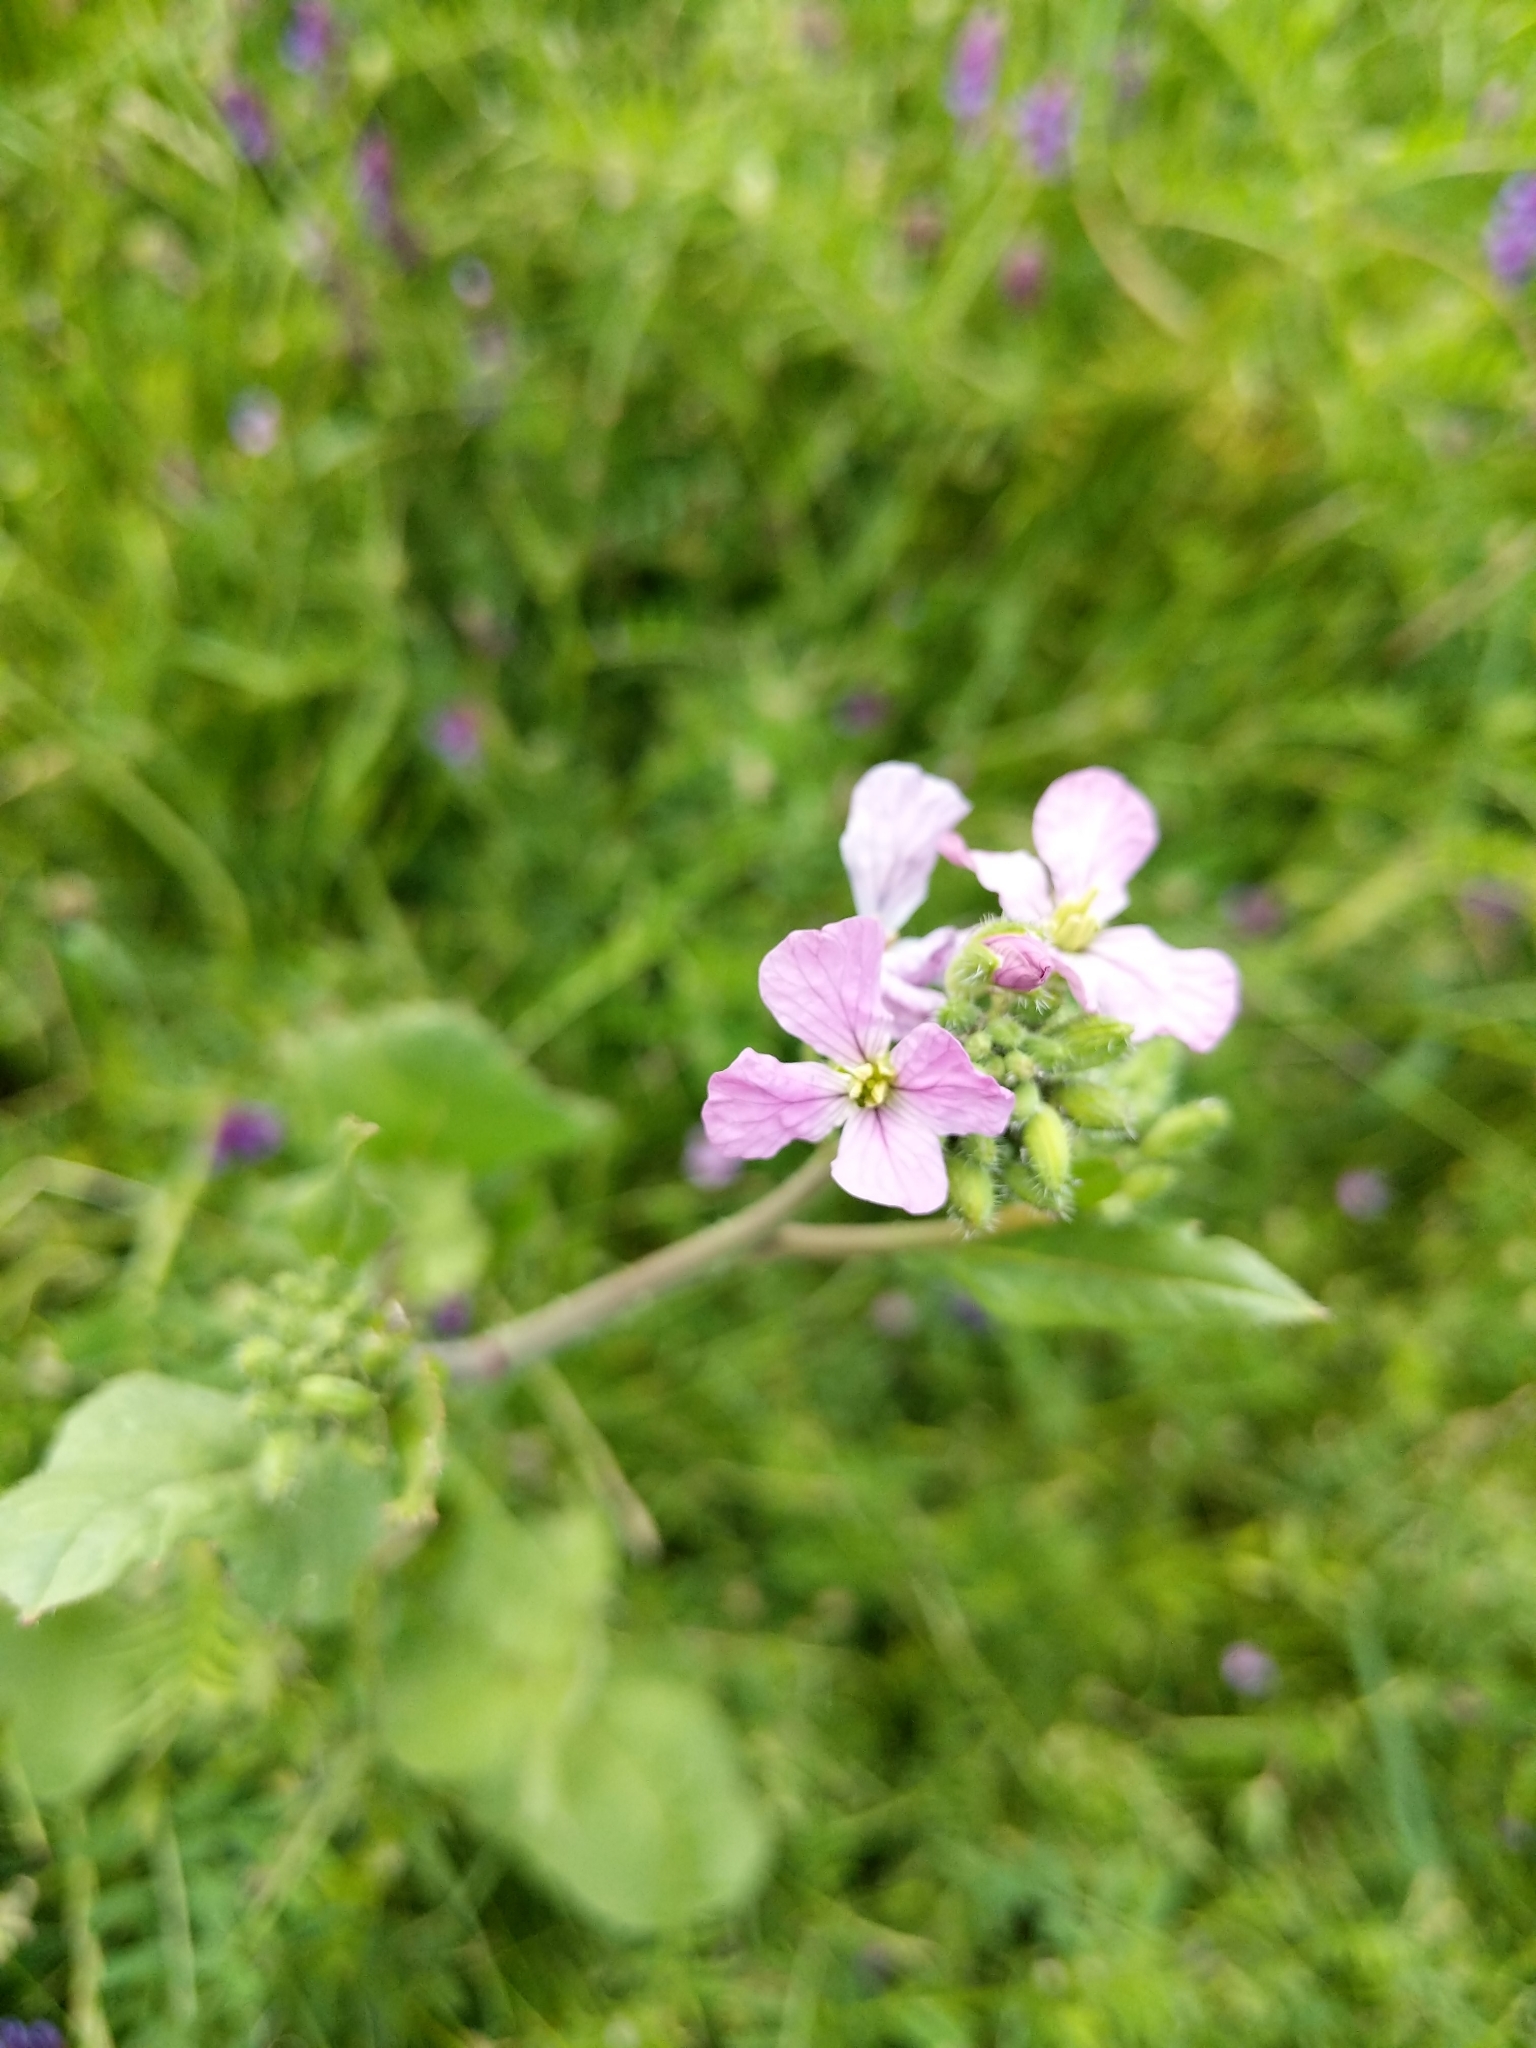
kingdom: Plantae
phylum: Tracheophyta
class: Magnoliopsida
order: Brassicales
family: Brassicaceae
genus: Raphanus
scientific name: Raphanus sativus
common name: Cultivated radish
